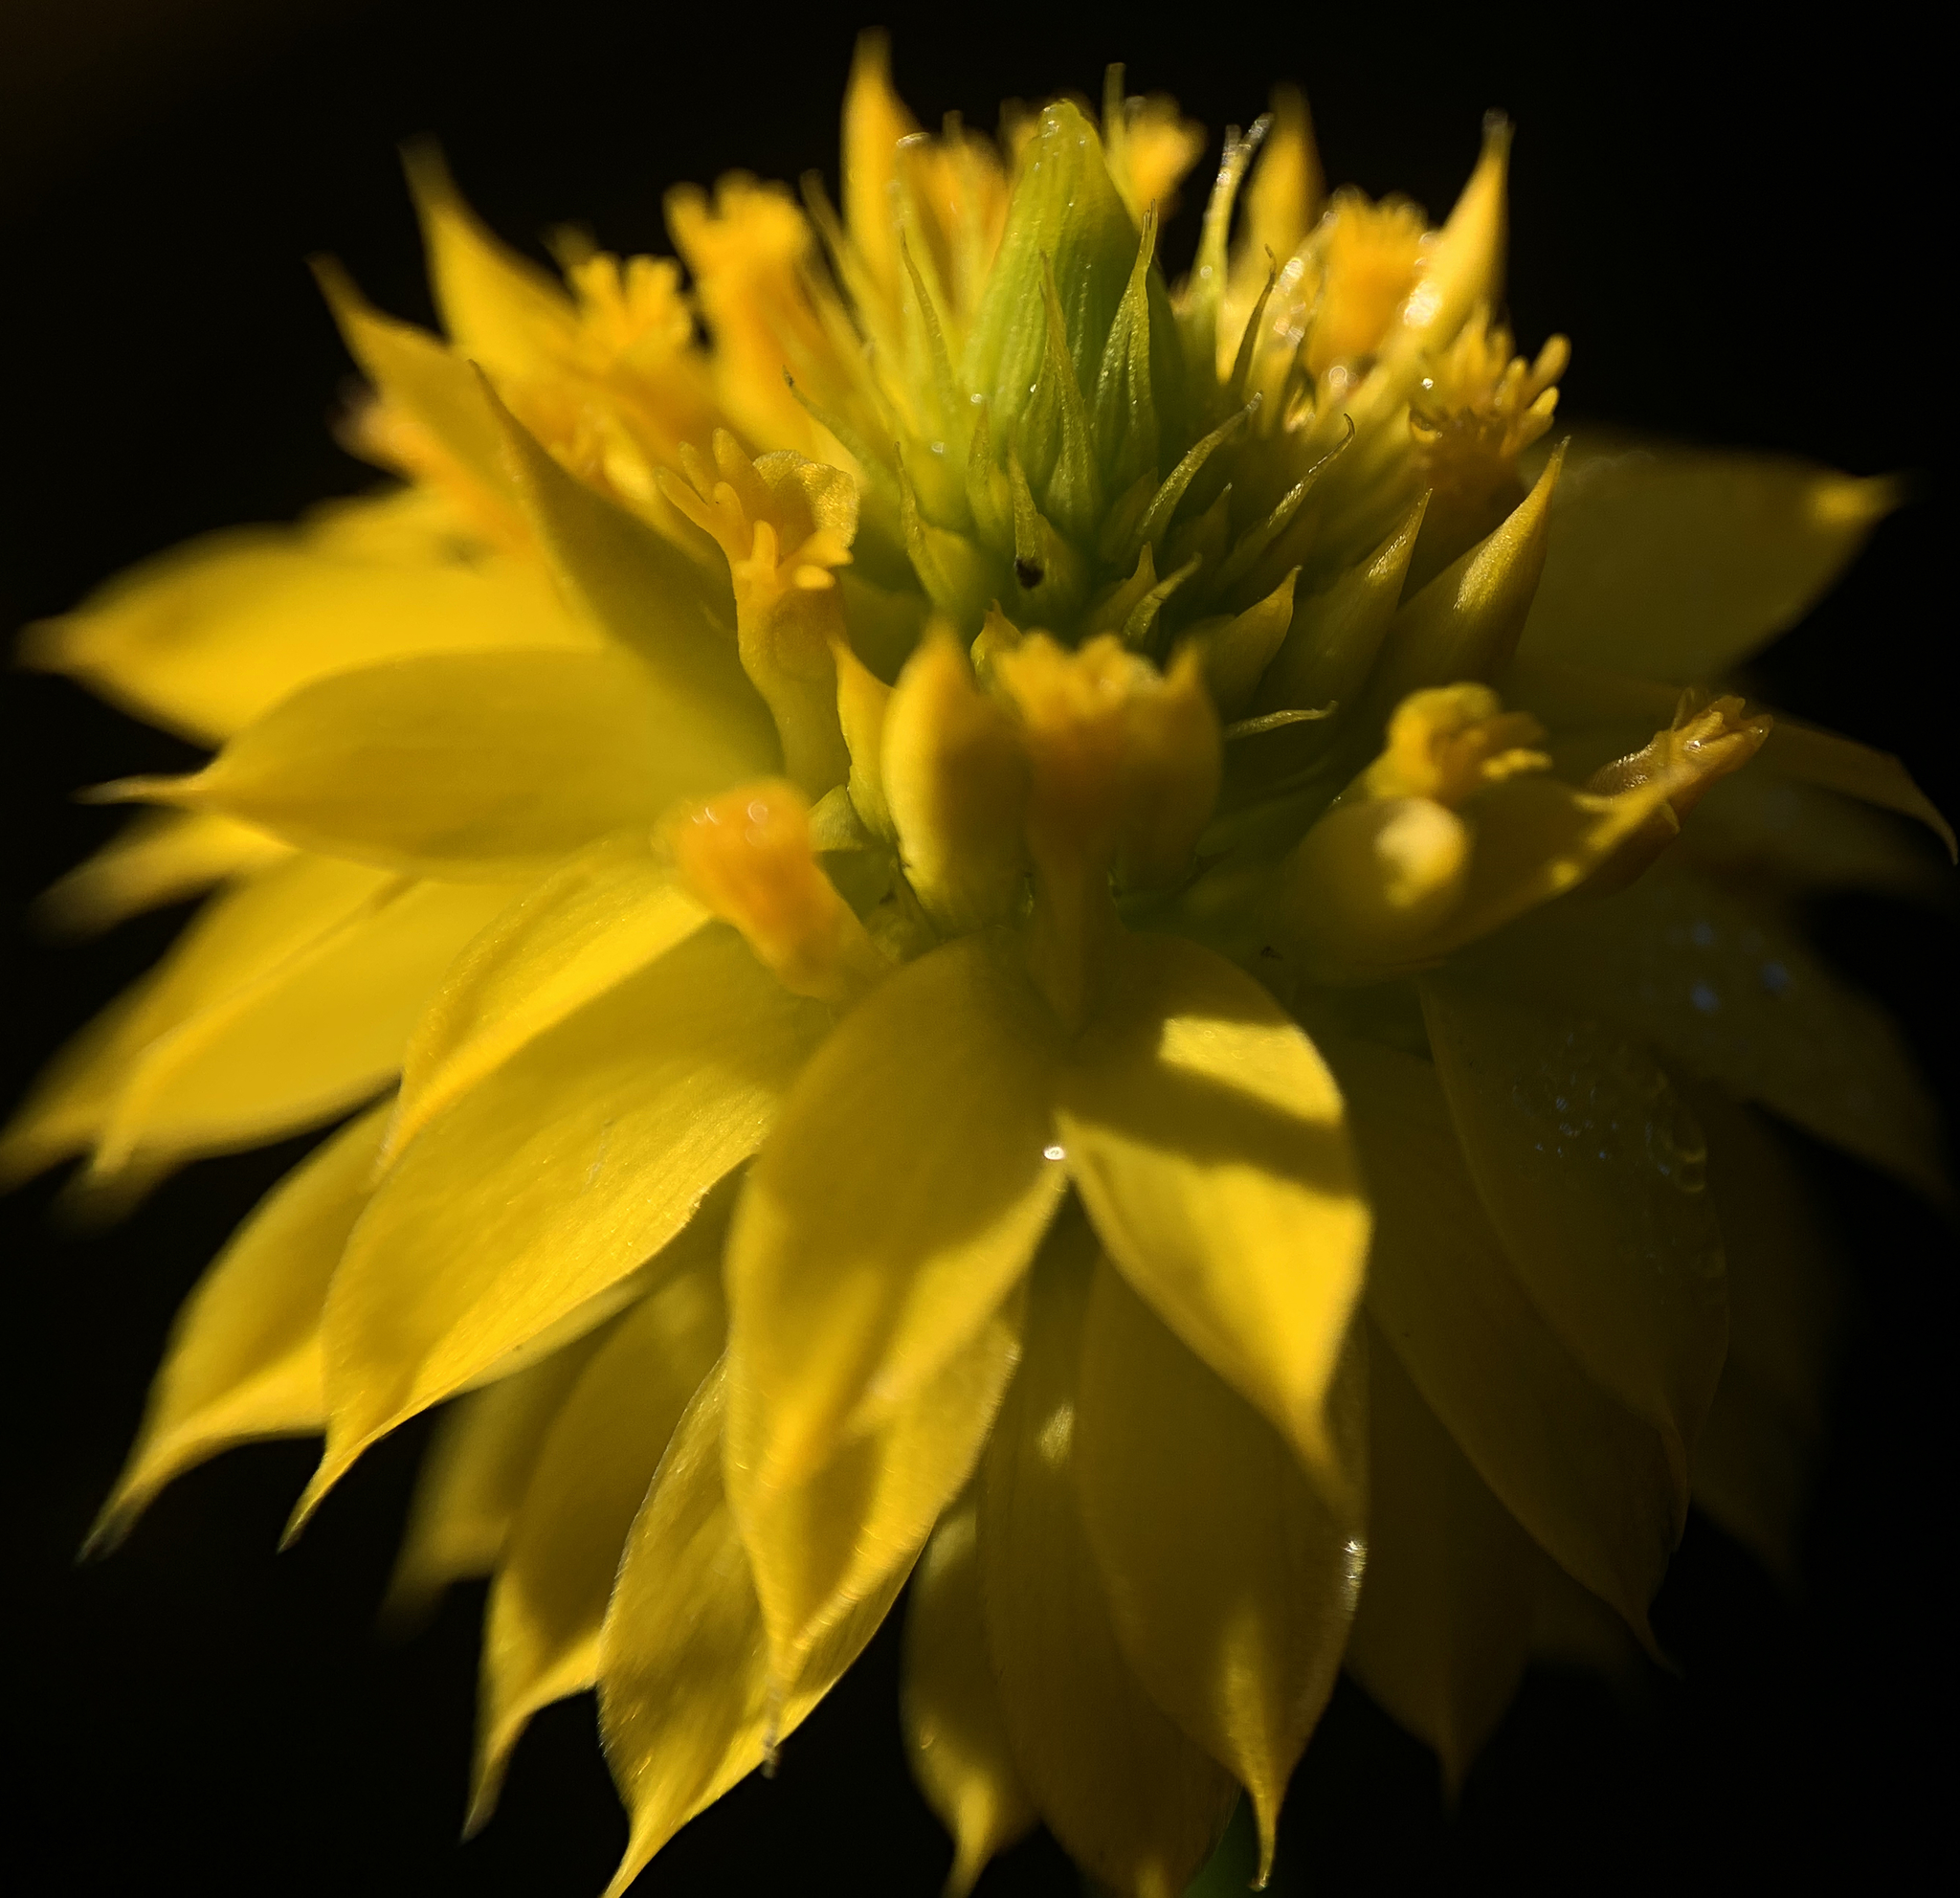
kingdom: Plantae
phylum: Tracheophyta
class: Magnoliopsida
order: Fabales
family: Polygalaceae
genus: Polygala
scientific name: Polygala rugelii
